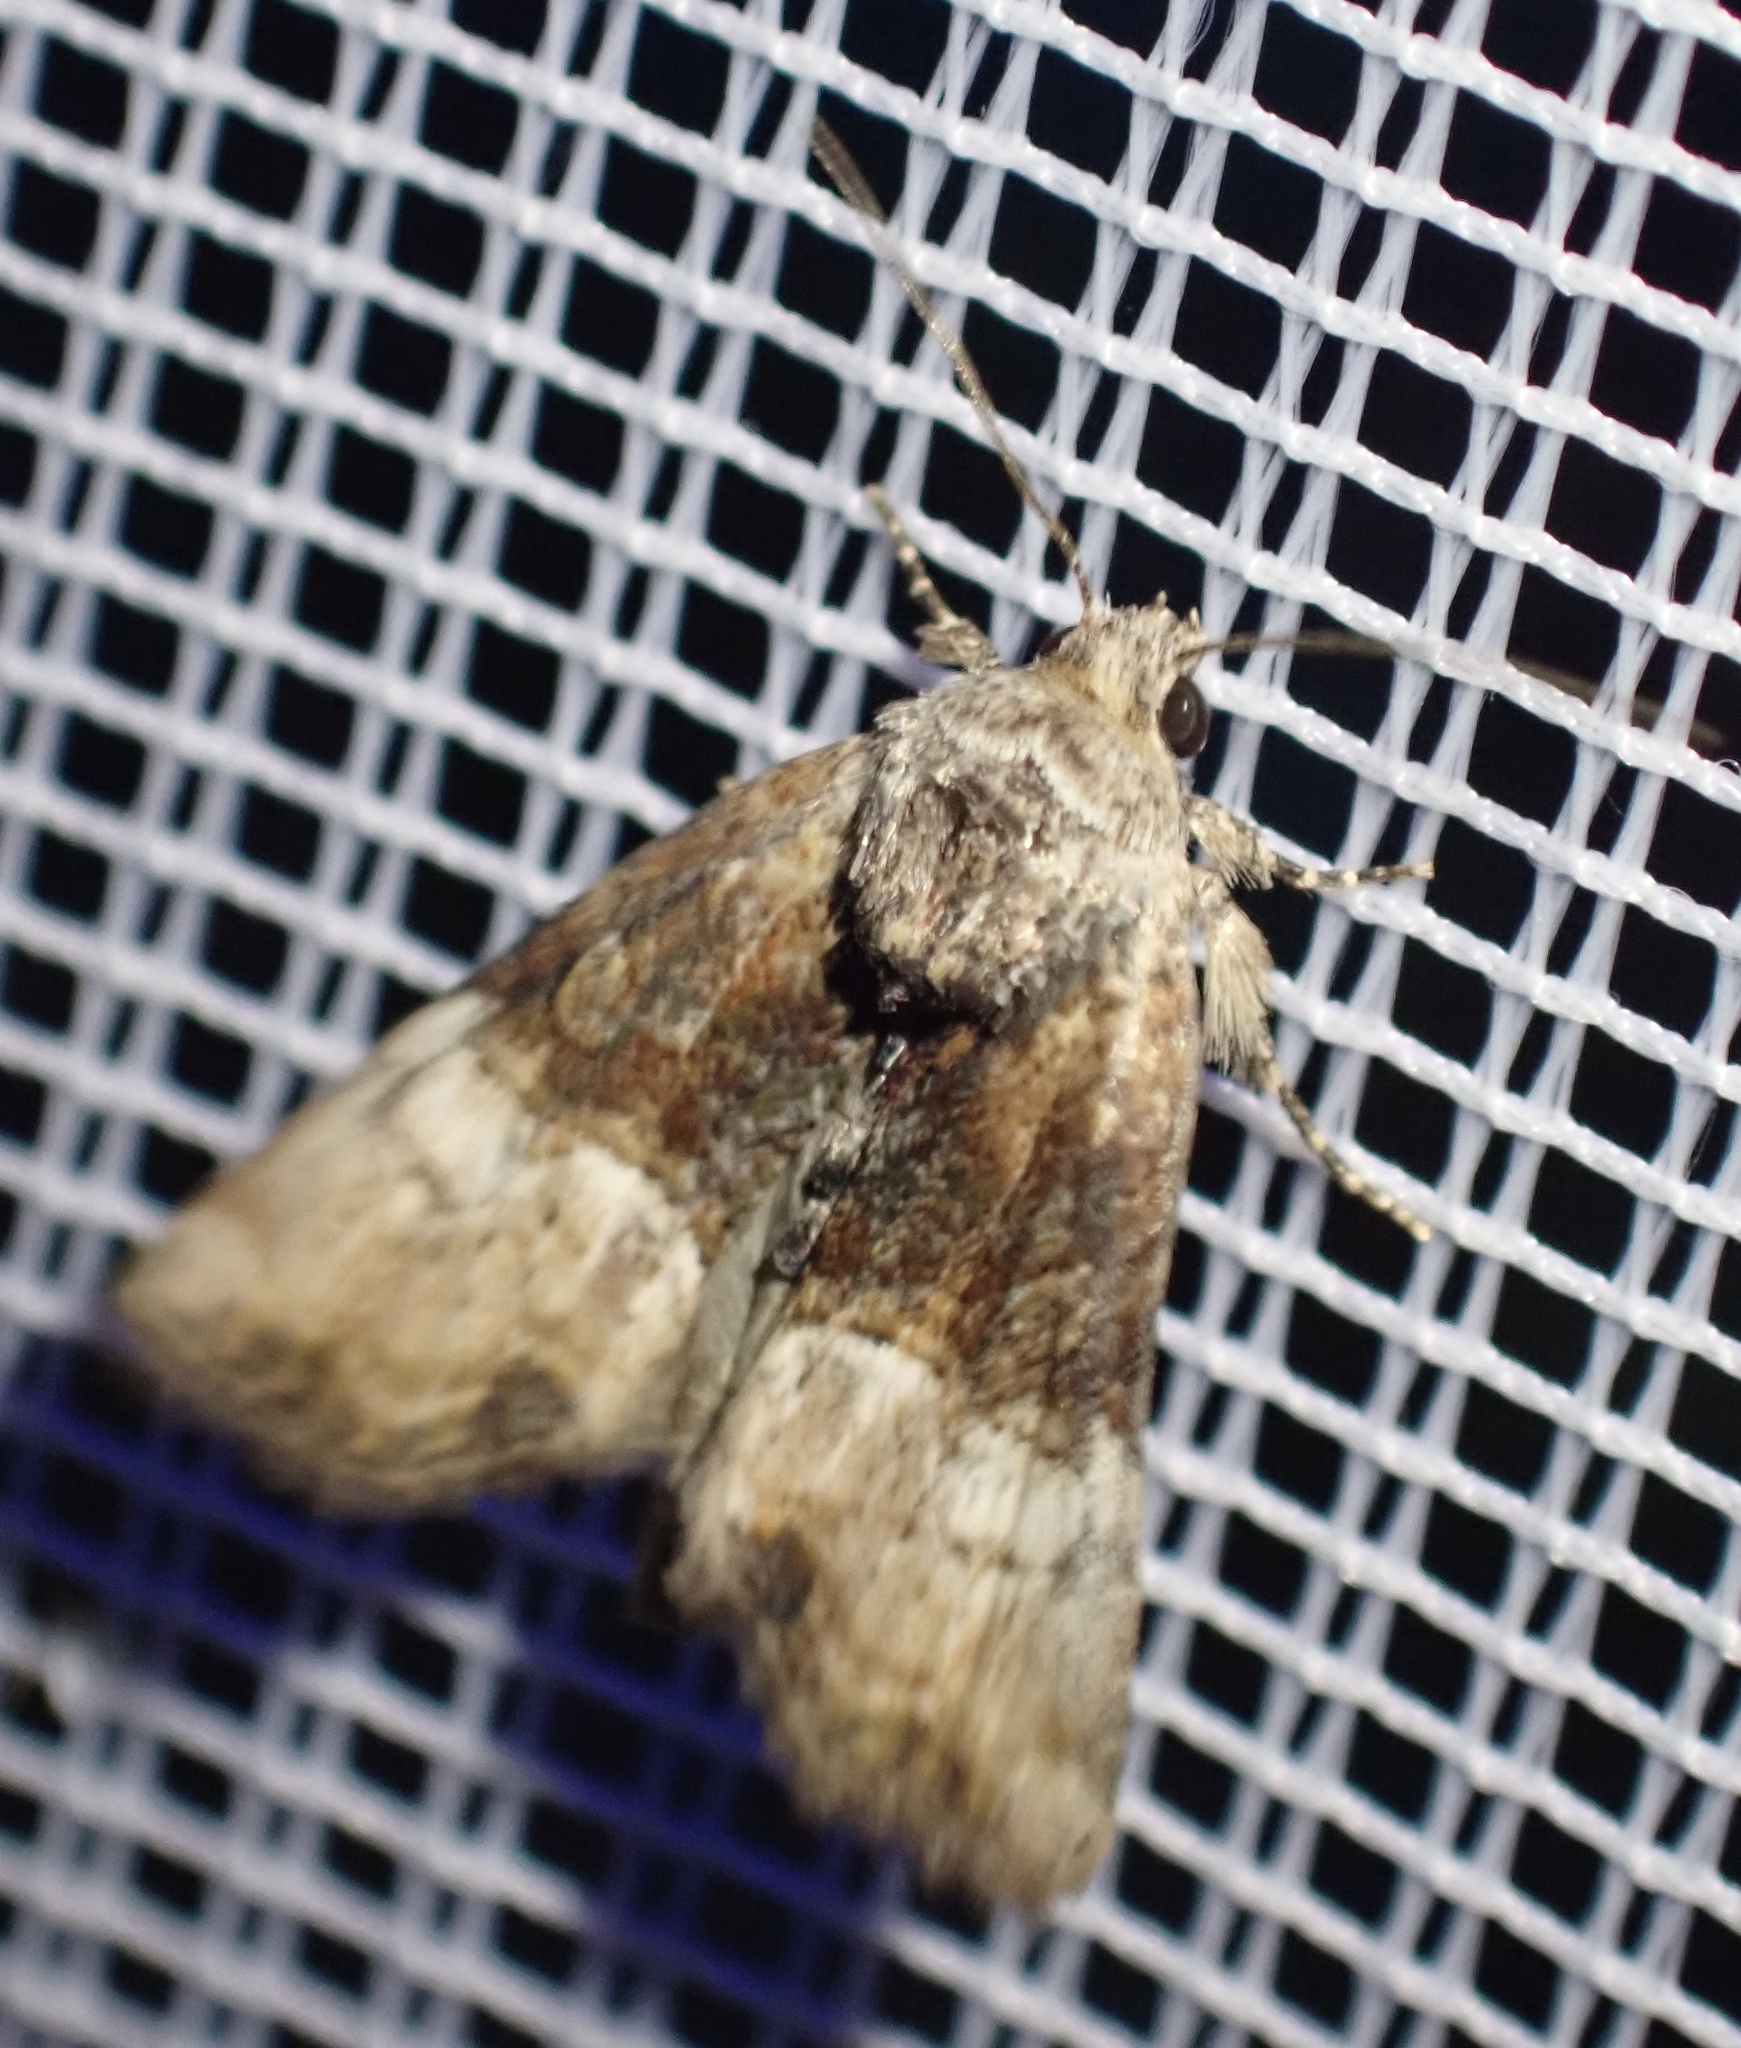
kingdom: Animalia
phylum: Arthropoda
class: Insecta
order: Lepidoptera
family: Noctuidae
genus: Mesoligia
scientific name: Mesoligia furuncula
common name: Cloaked minor
